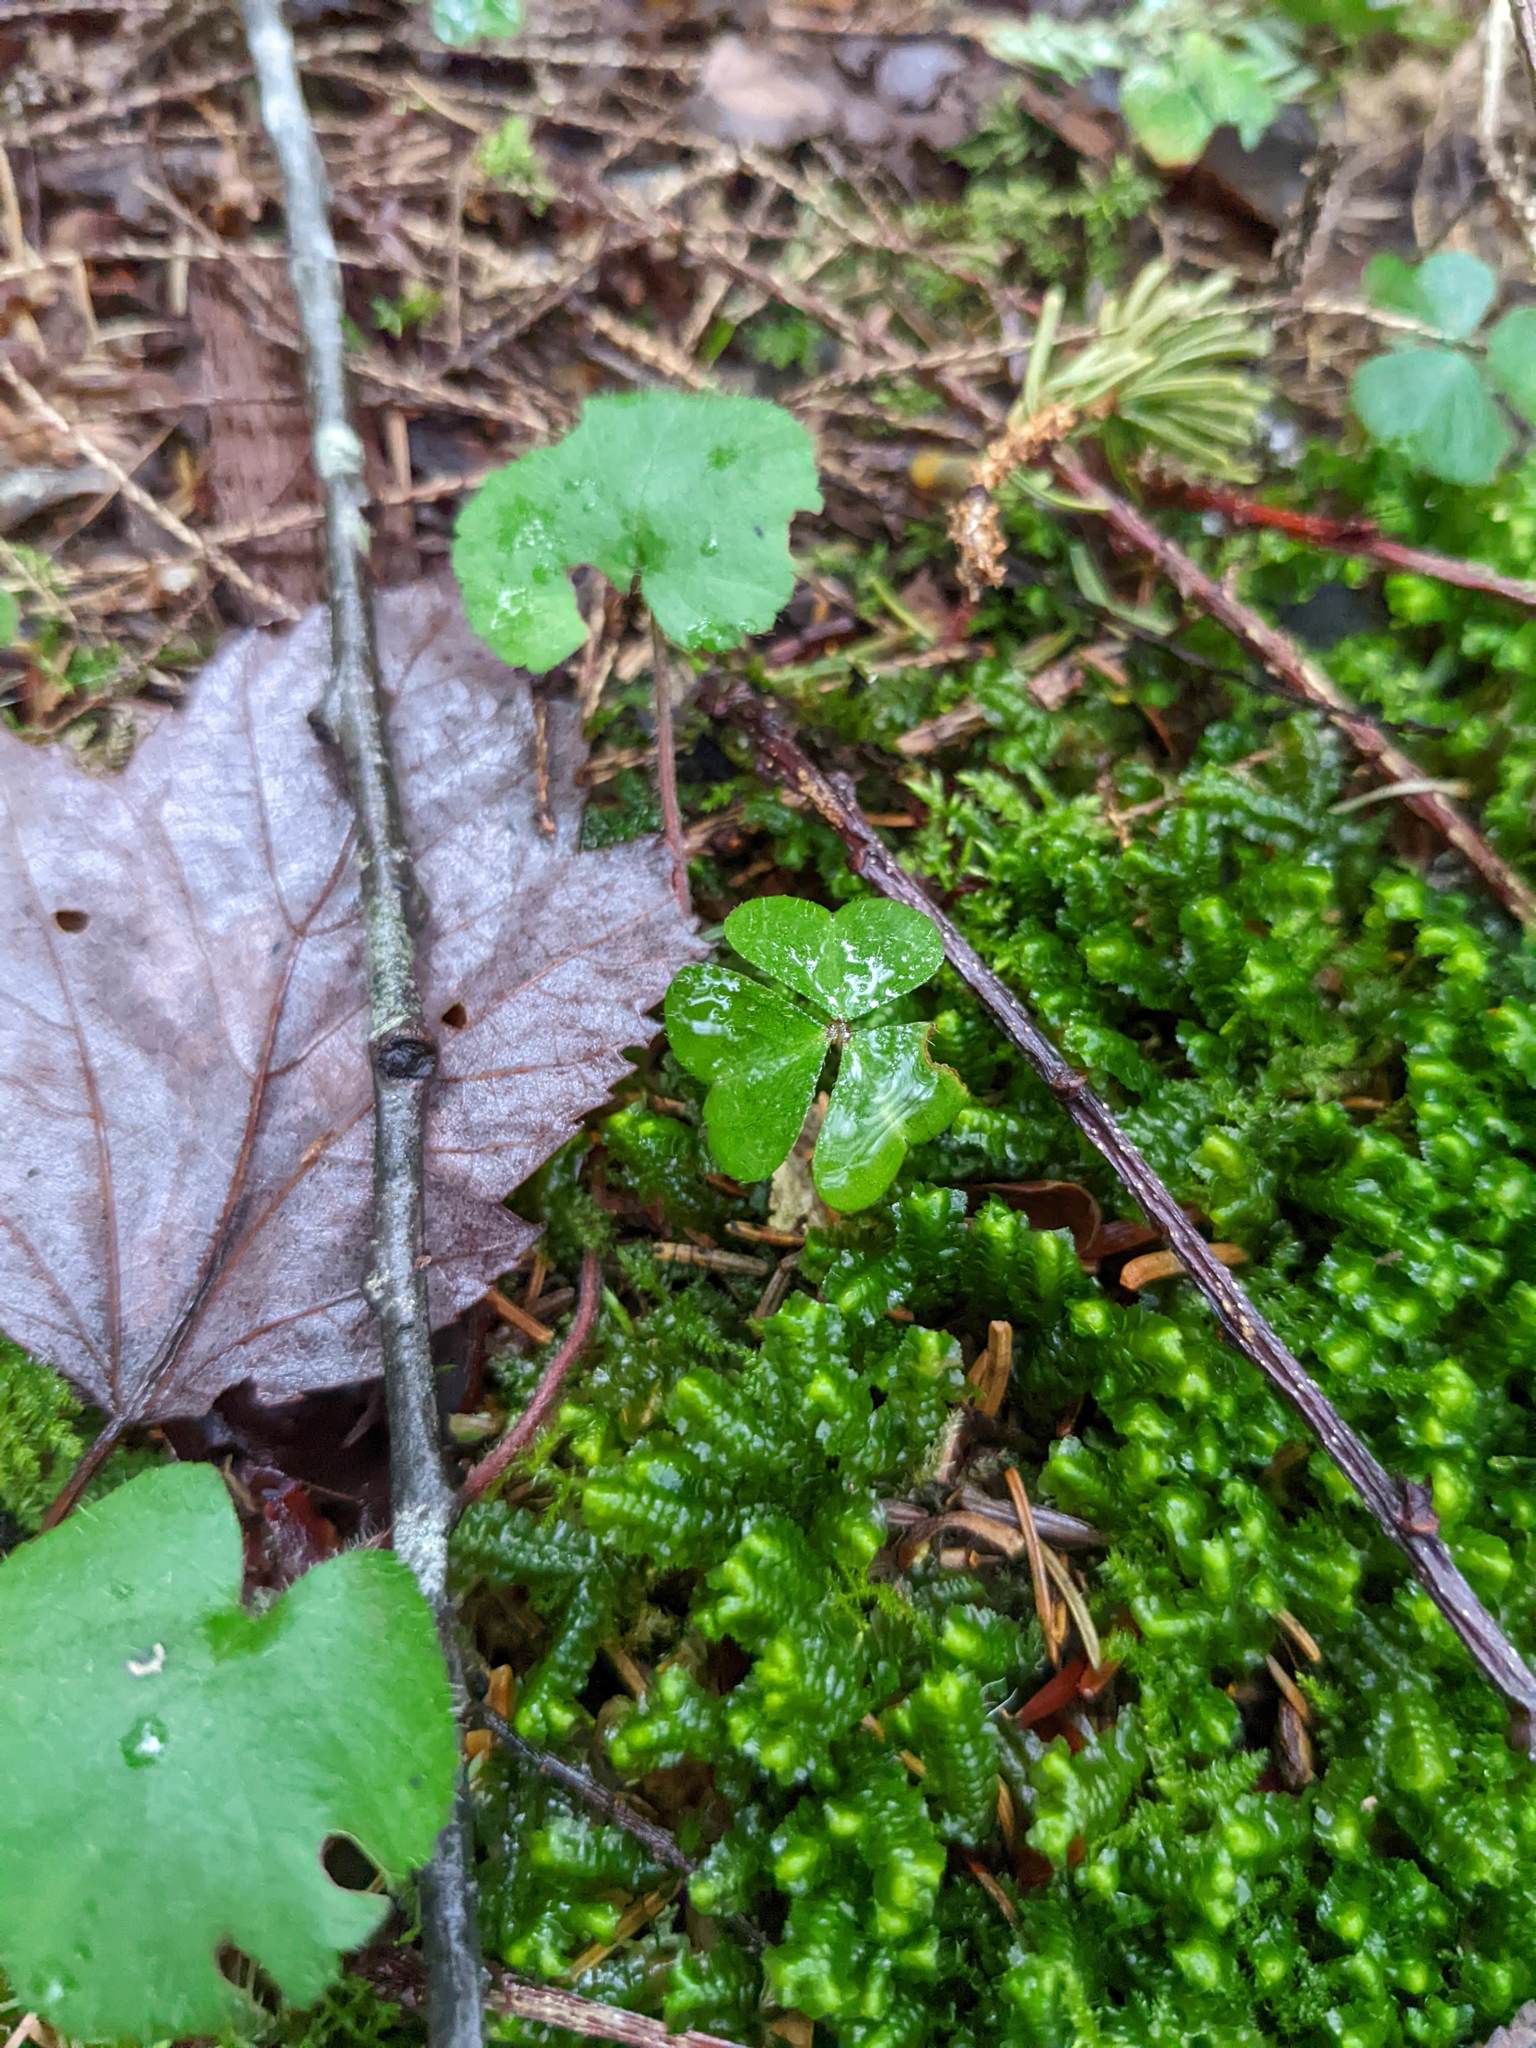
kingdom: Plantae
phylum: Tracheophyta
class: Magnoliopsida
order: Oxalidales
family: Oxalidaceae
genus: Oxalis
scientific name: Oxalis montana
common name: American wood-sorrel
